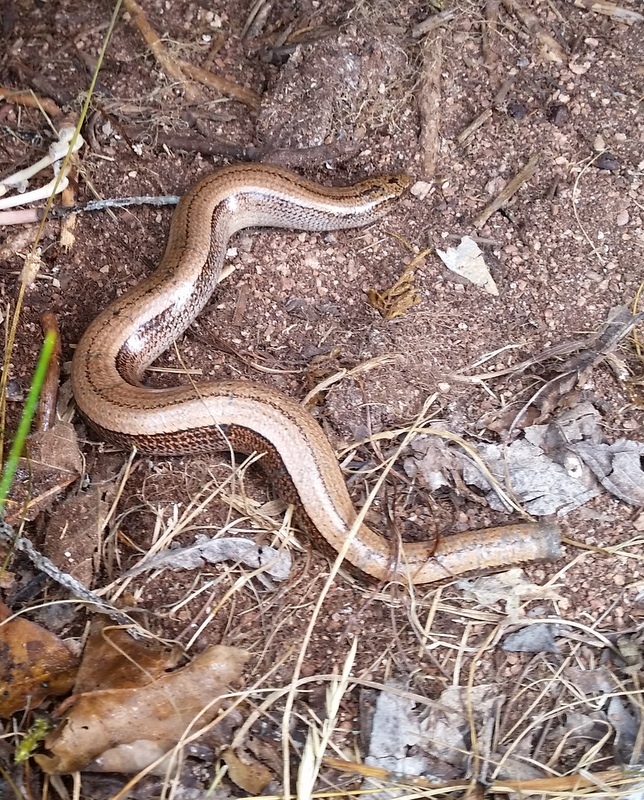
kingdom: Animalia
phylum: Chordata
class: Squamata
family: Anguidae
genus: Anguis
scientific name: Anguis fragilis
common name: Slow worm
